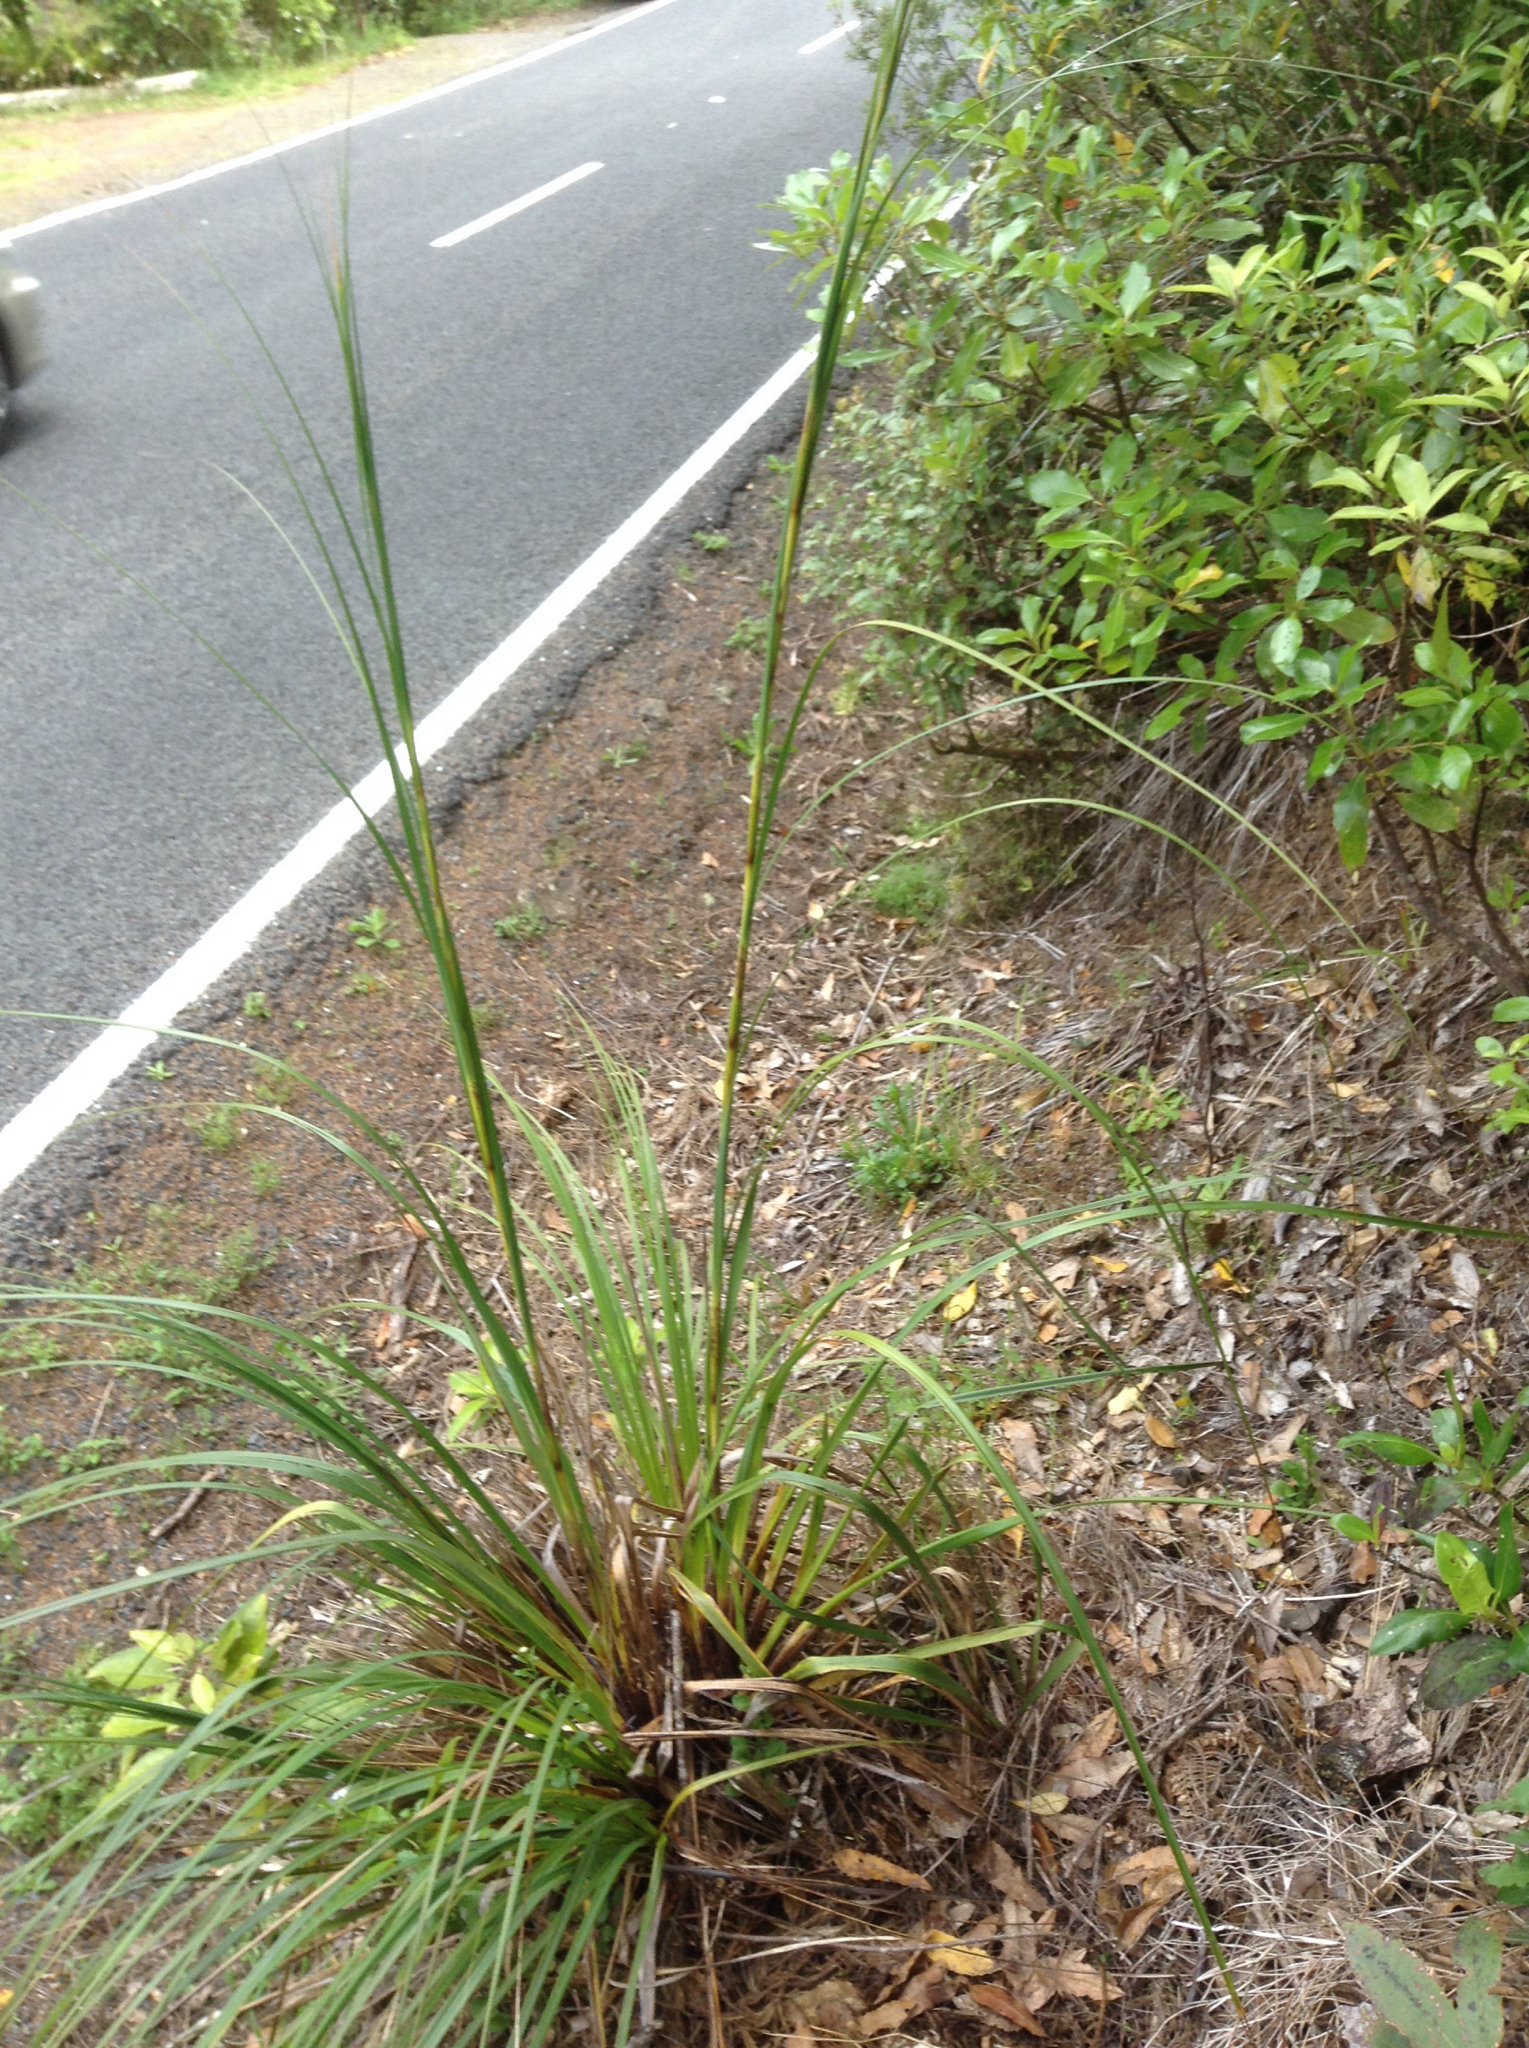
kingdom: Plantae
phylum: Tracheophyta
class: Liliopsida
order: Poales
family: Cyperaceae
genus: Gahnia
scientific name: Gahnia setifolia
